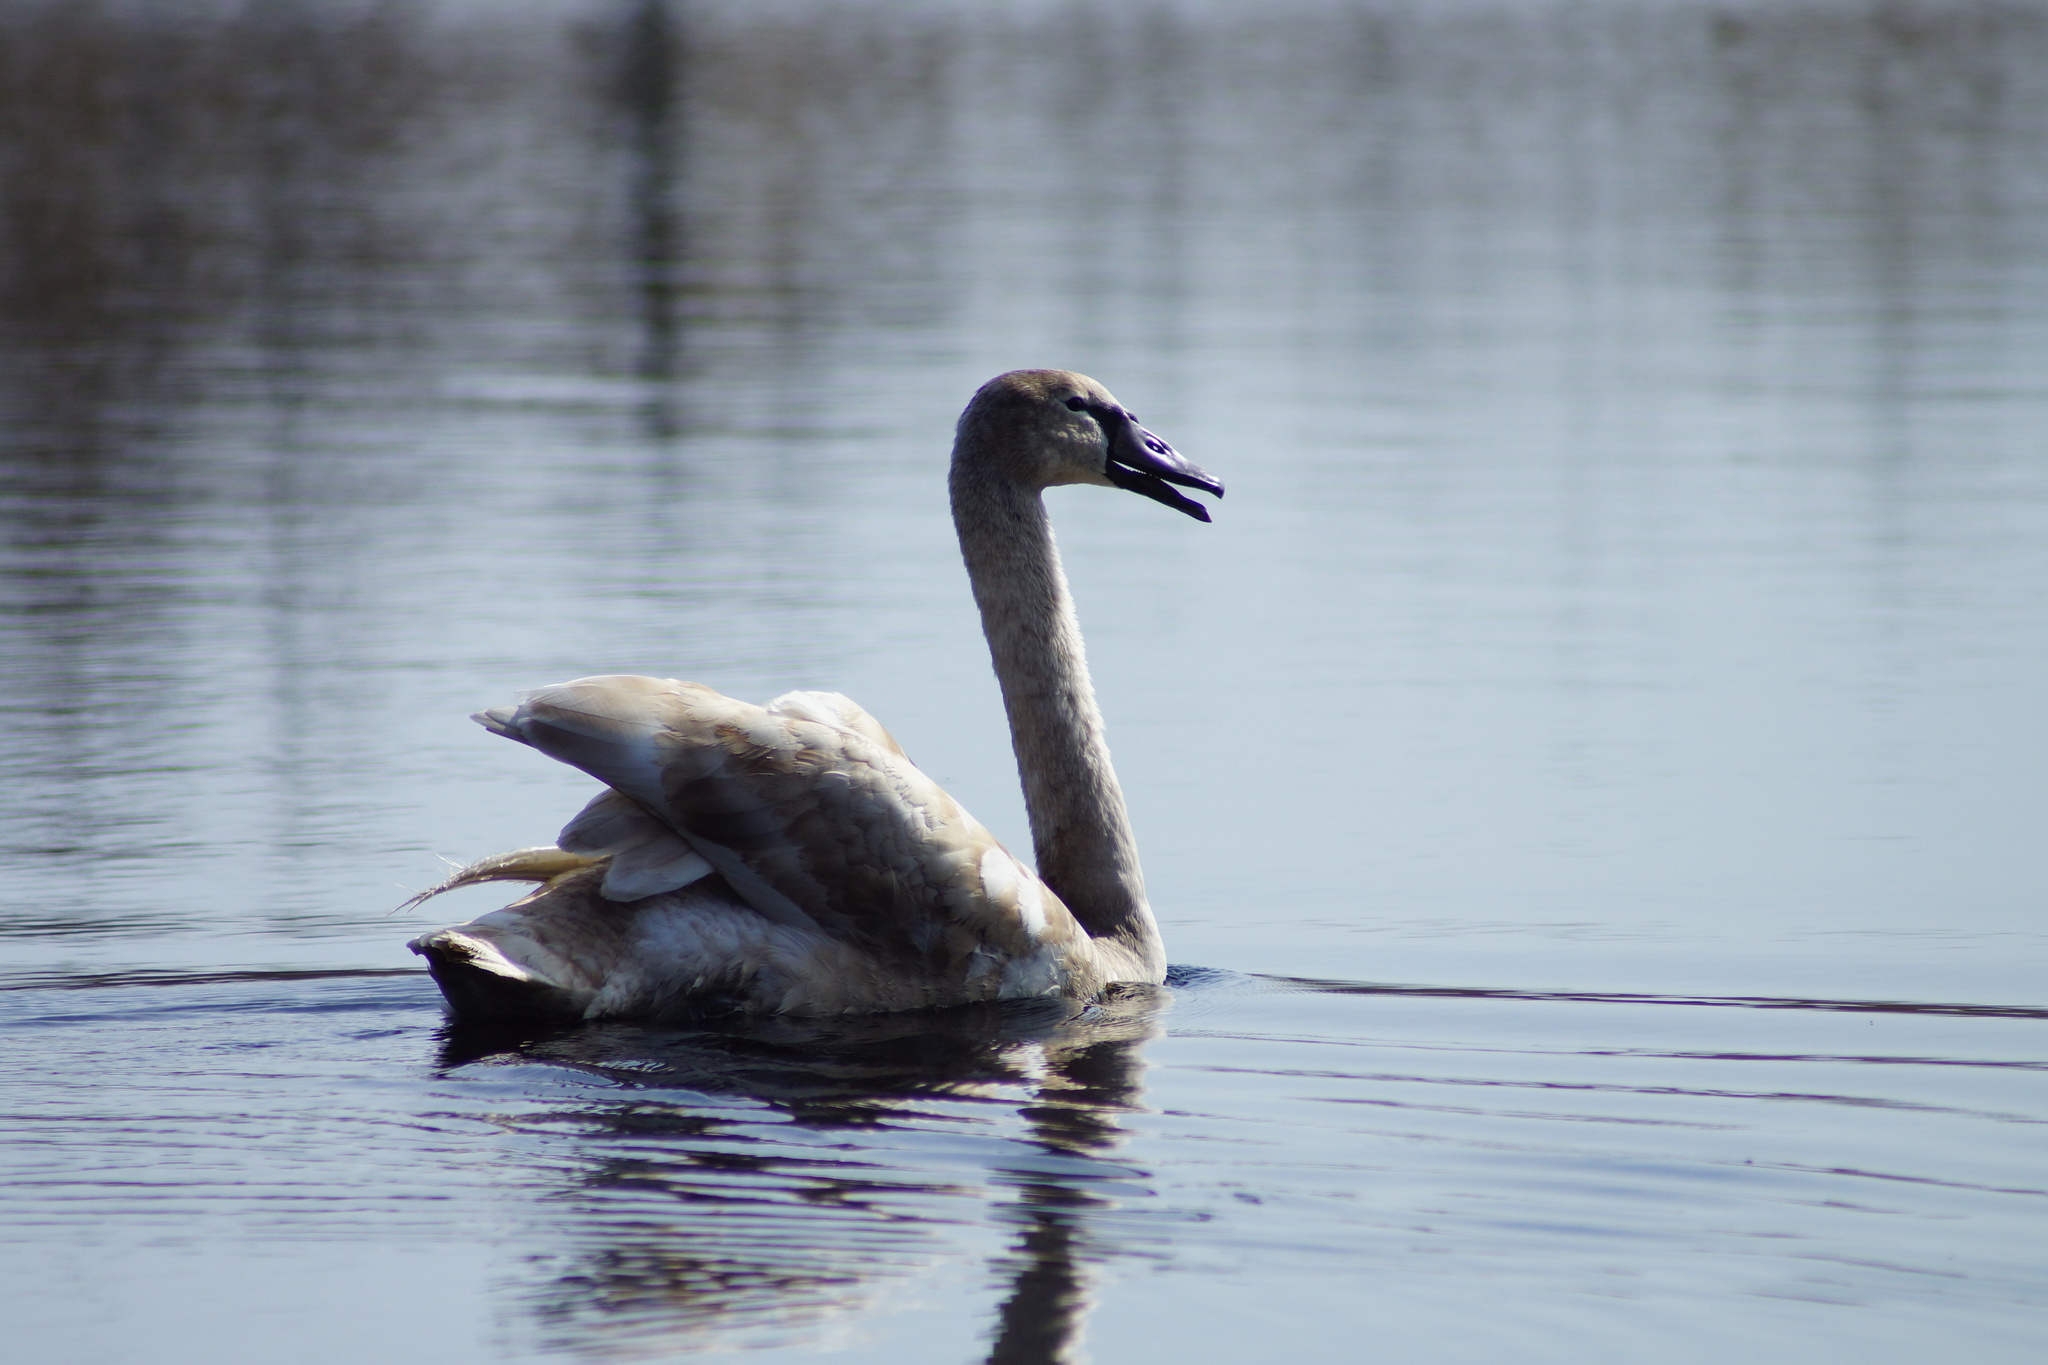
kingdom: Animalia
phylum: Chordata
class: Aves
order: Anseriformes
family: Anatidae
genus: Cygnus
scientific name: Cygnus olor
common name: Mute swan
